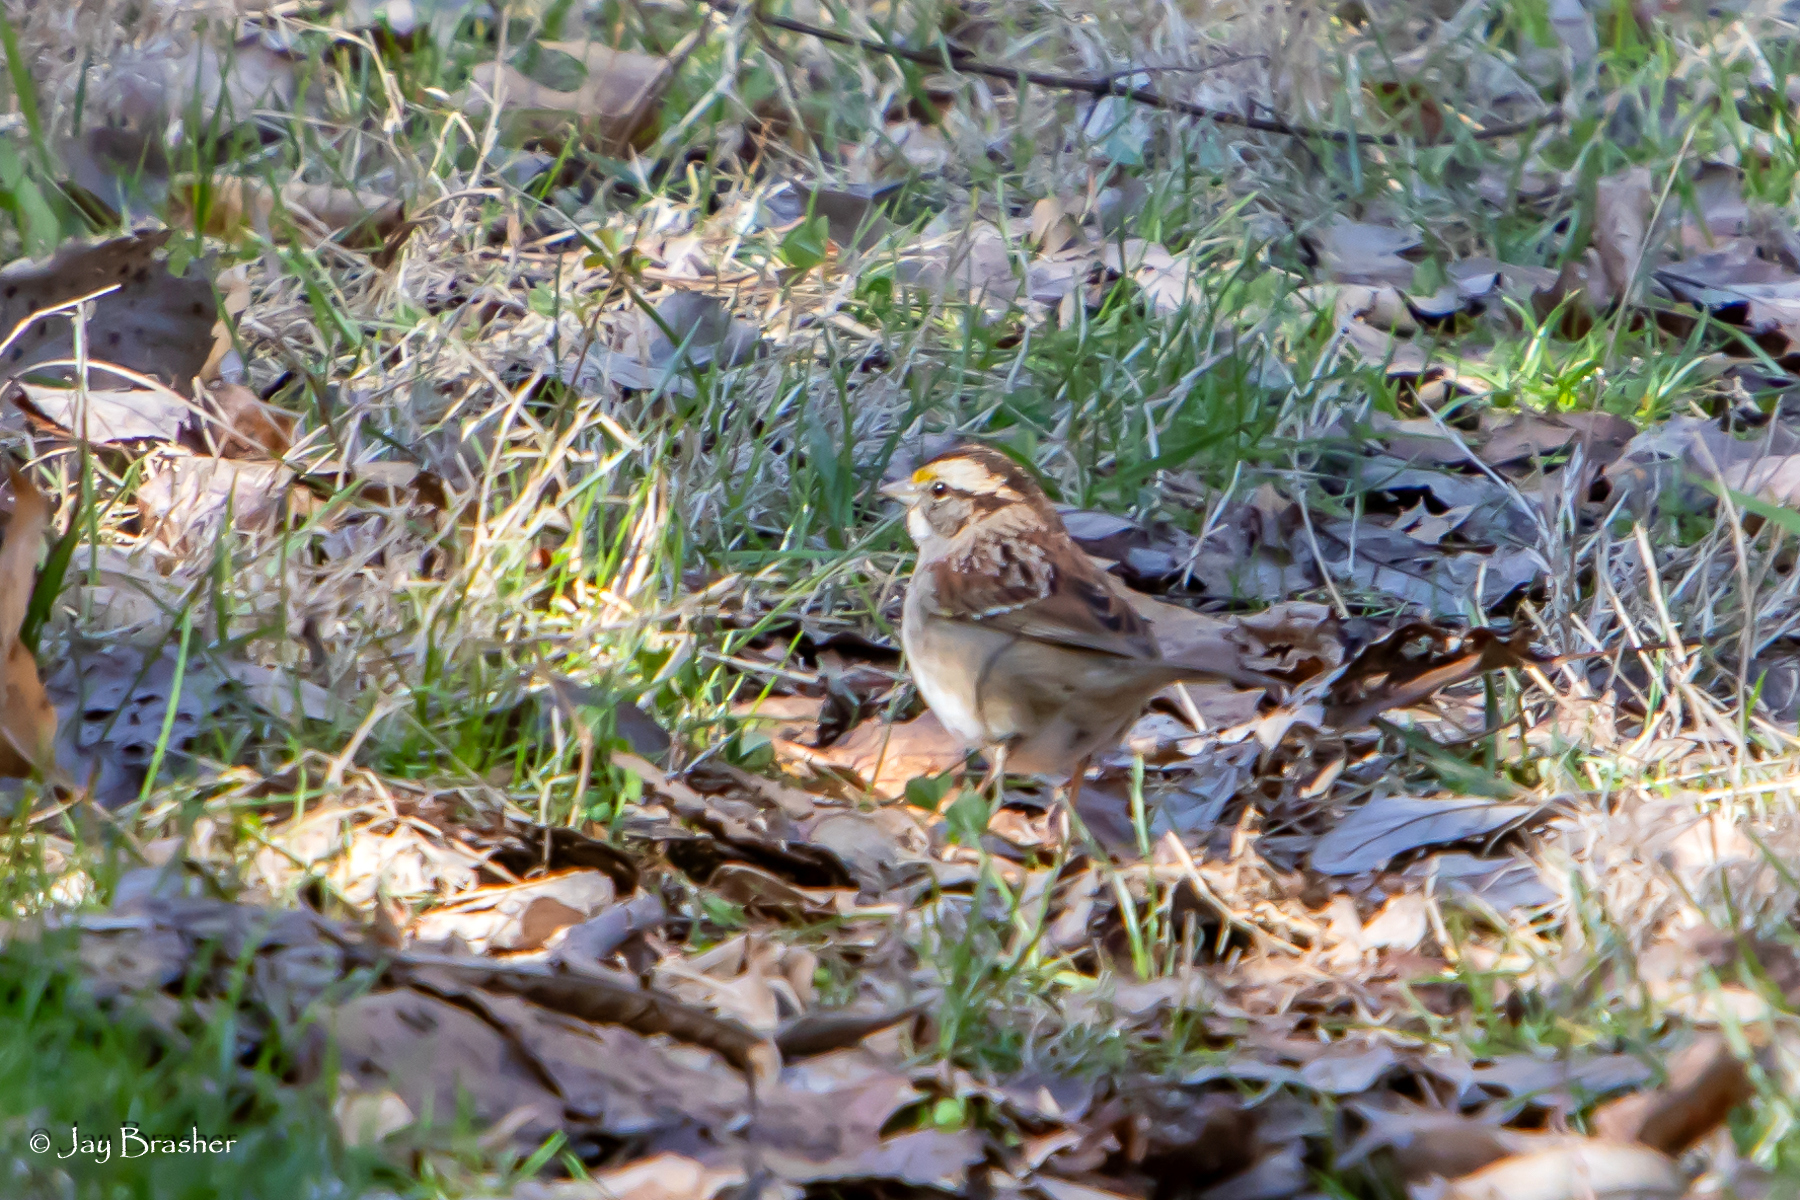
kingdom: Animalia
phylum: Chordata
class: Aves
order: Passeriformes
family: Passerellidae
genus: Zonotrichia
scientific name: Zonotrichia albicollis
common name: White-throated sparrow
